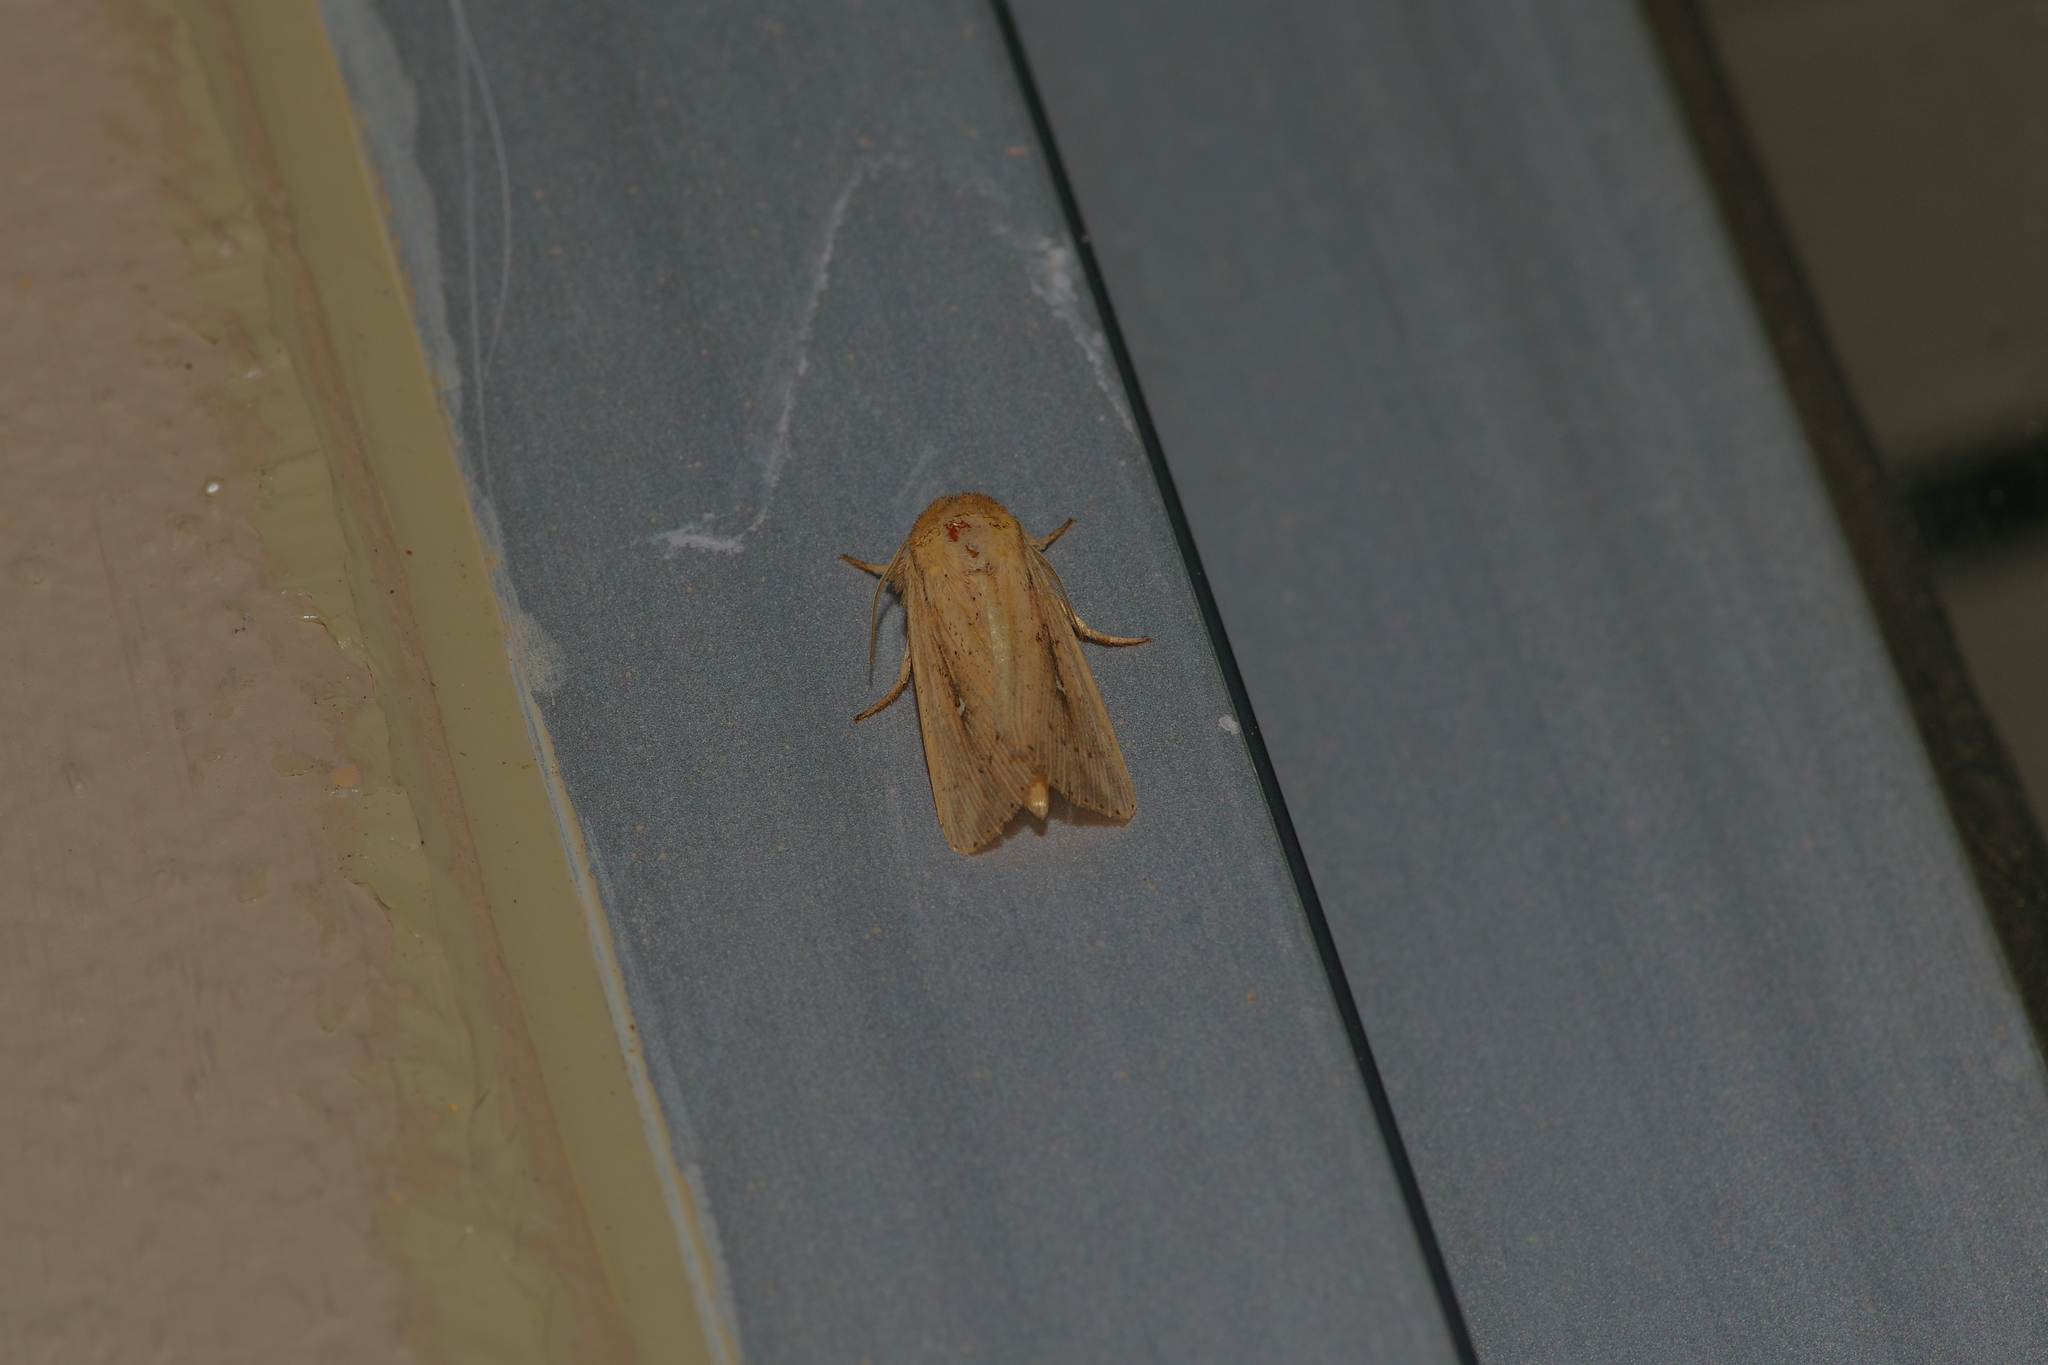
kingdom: Animalia
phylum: Arthropoda
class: Insecta
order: Lepidoptera
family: Noctuidae
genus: Leucania
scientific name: Leucania incognita
